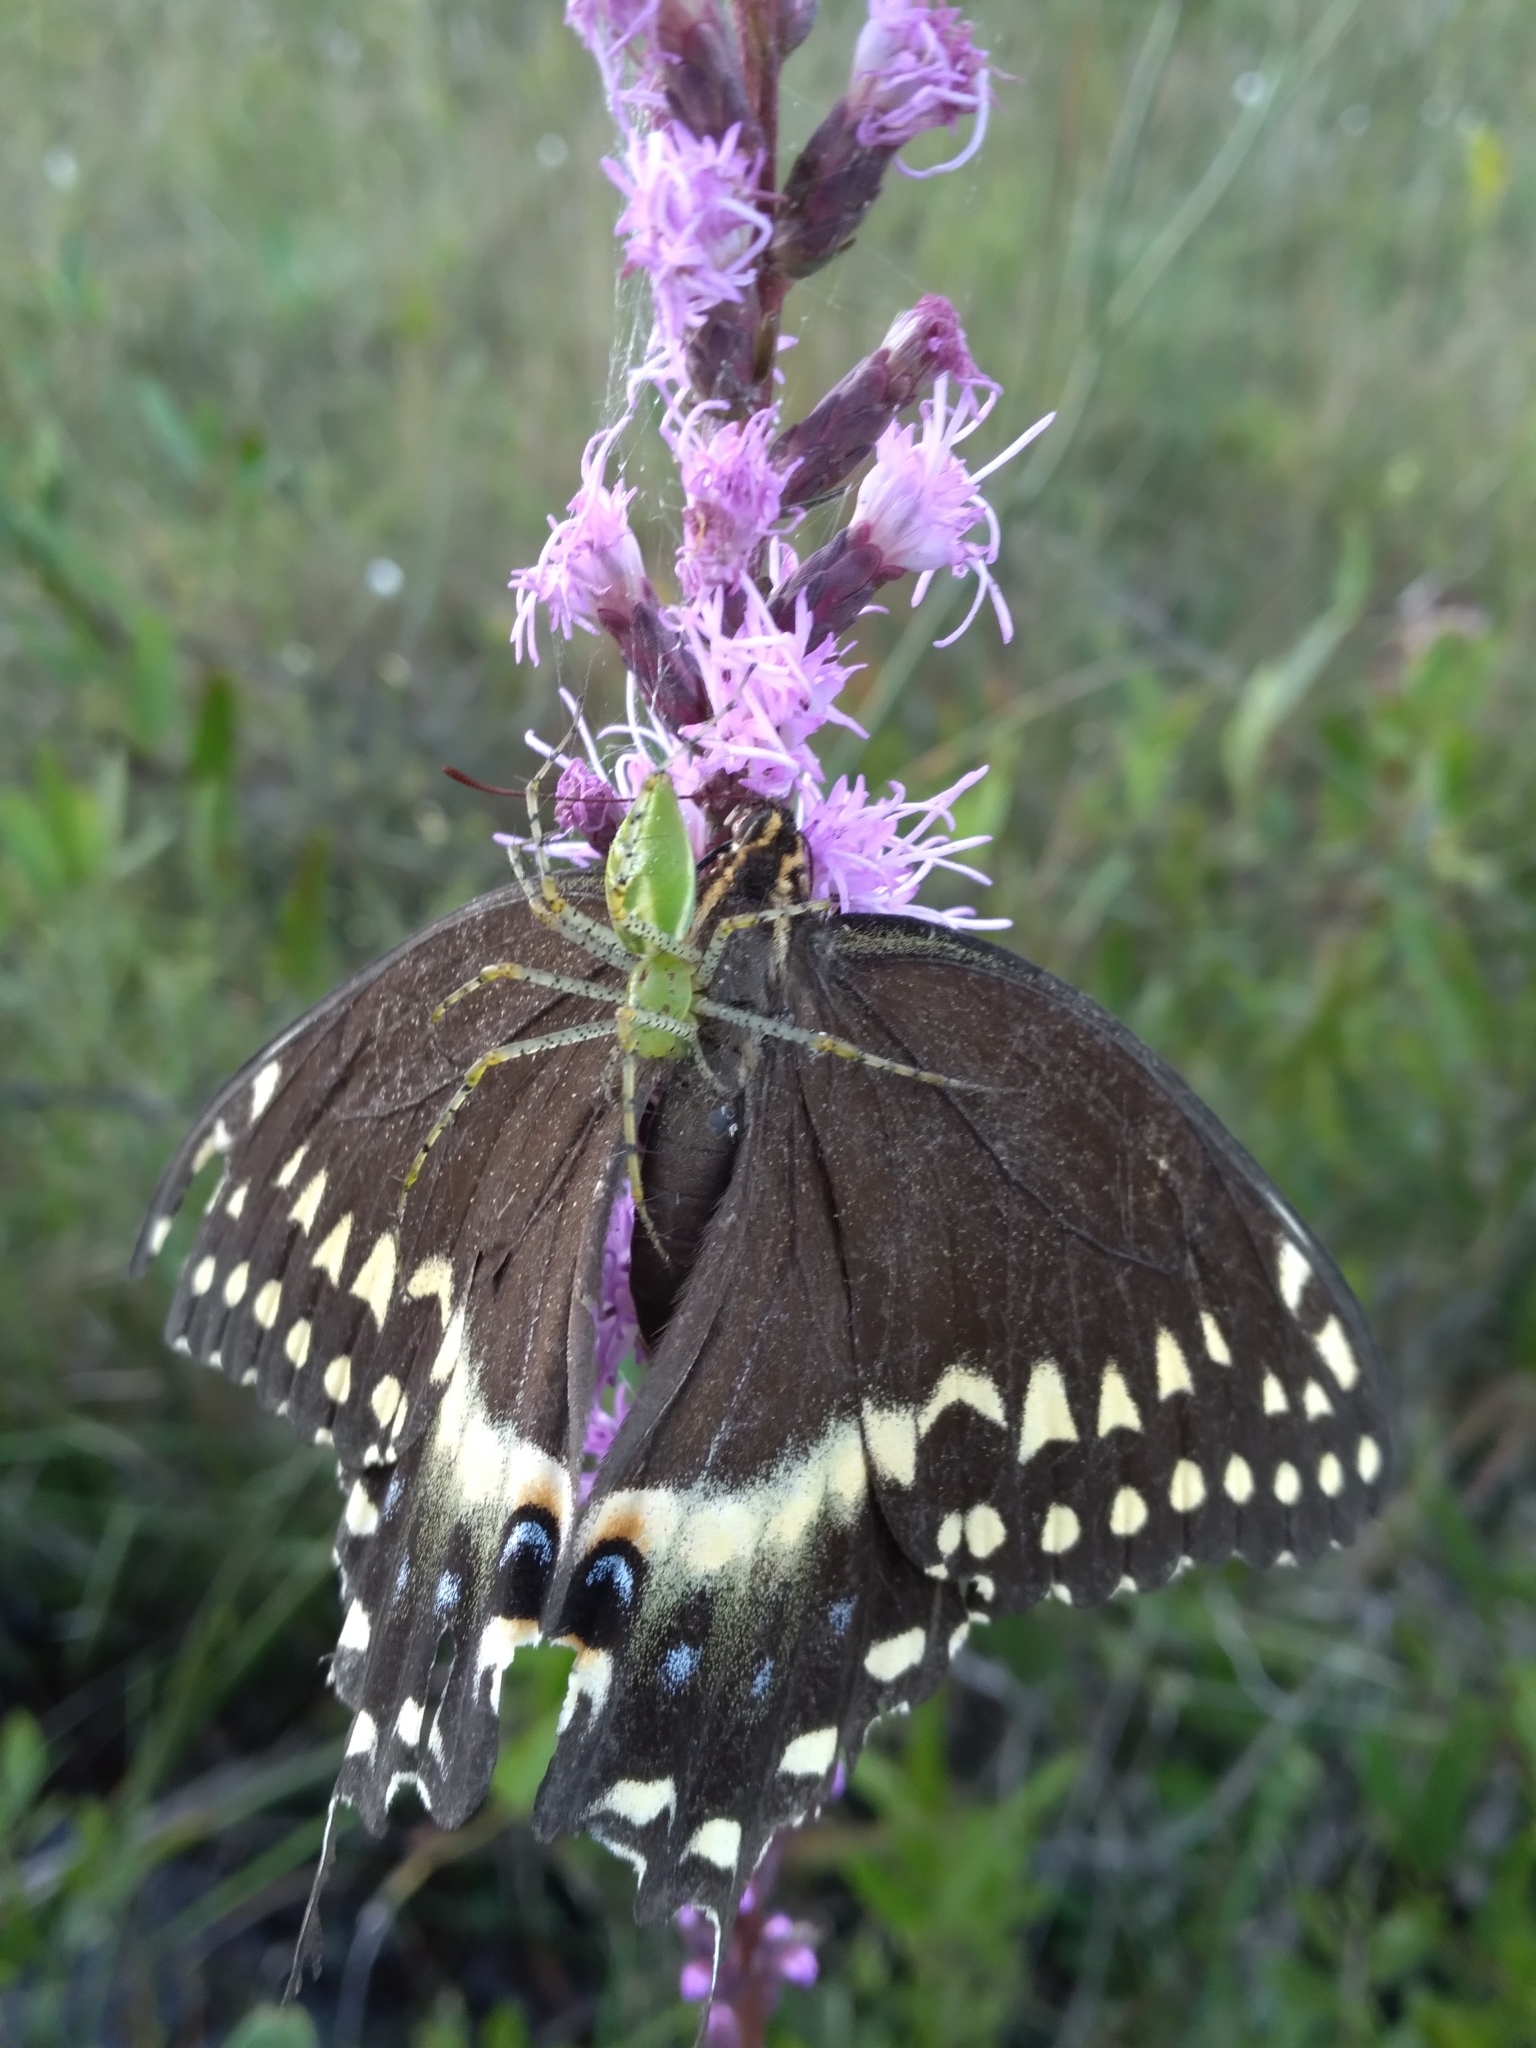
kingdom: Animalia
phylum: Arthropoda
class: Insecta
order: Lepidoptera
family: Papilionidae
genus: Papilio
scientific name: Papilio palamedes
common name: Palamedes swallowtail
